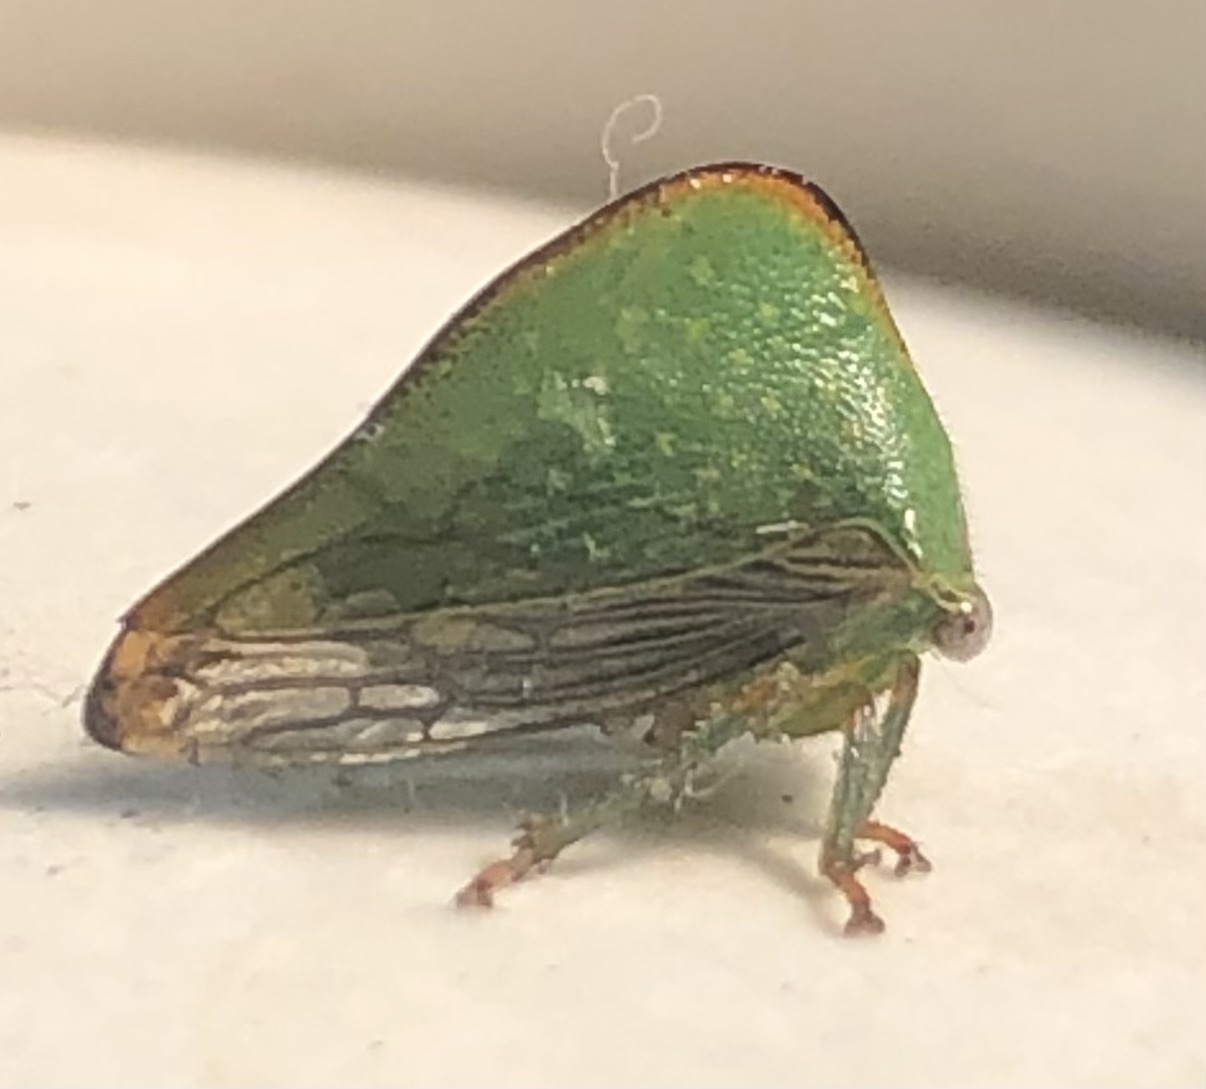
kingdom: Animalia
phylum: Arthropoda
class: Insecta
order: Hemiptera
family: Membracidae
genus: Archasia
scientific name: Archasia pallida
